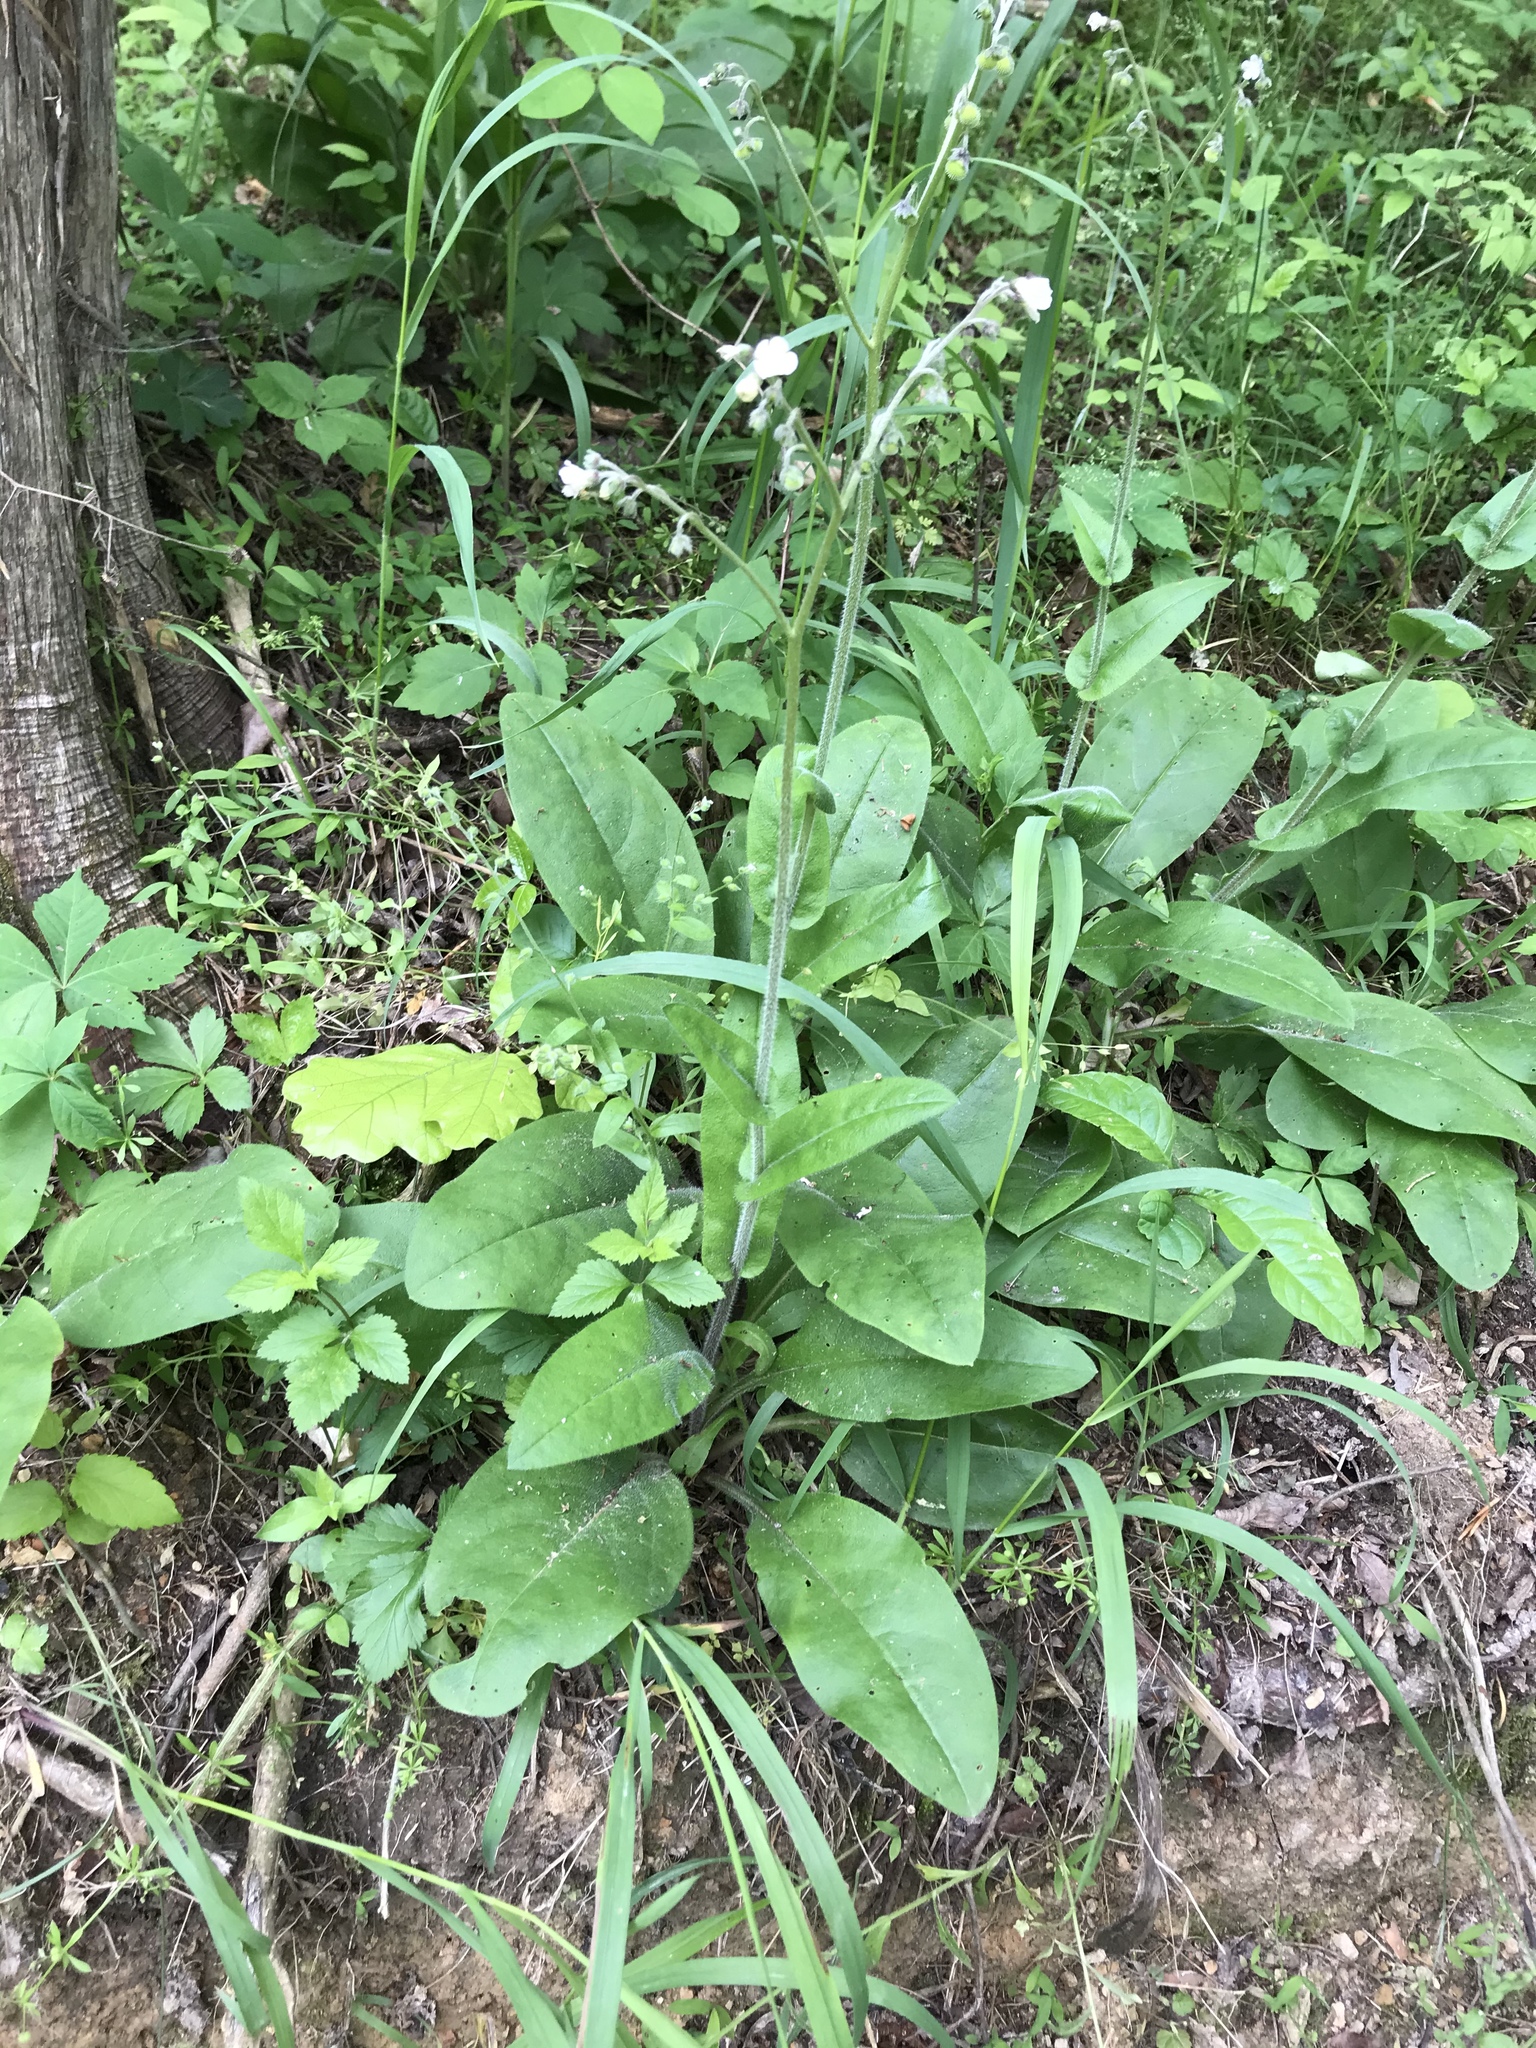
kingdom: Plantae
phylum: Tracheophyta
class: Magnoliopsida
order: Boraginales
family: Boraginaceae
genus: Andersonglossum
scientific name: Andersonglossum virginianum
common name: Wild comfrey
